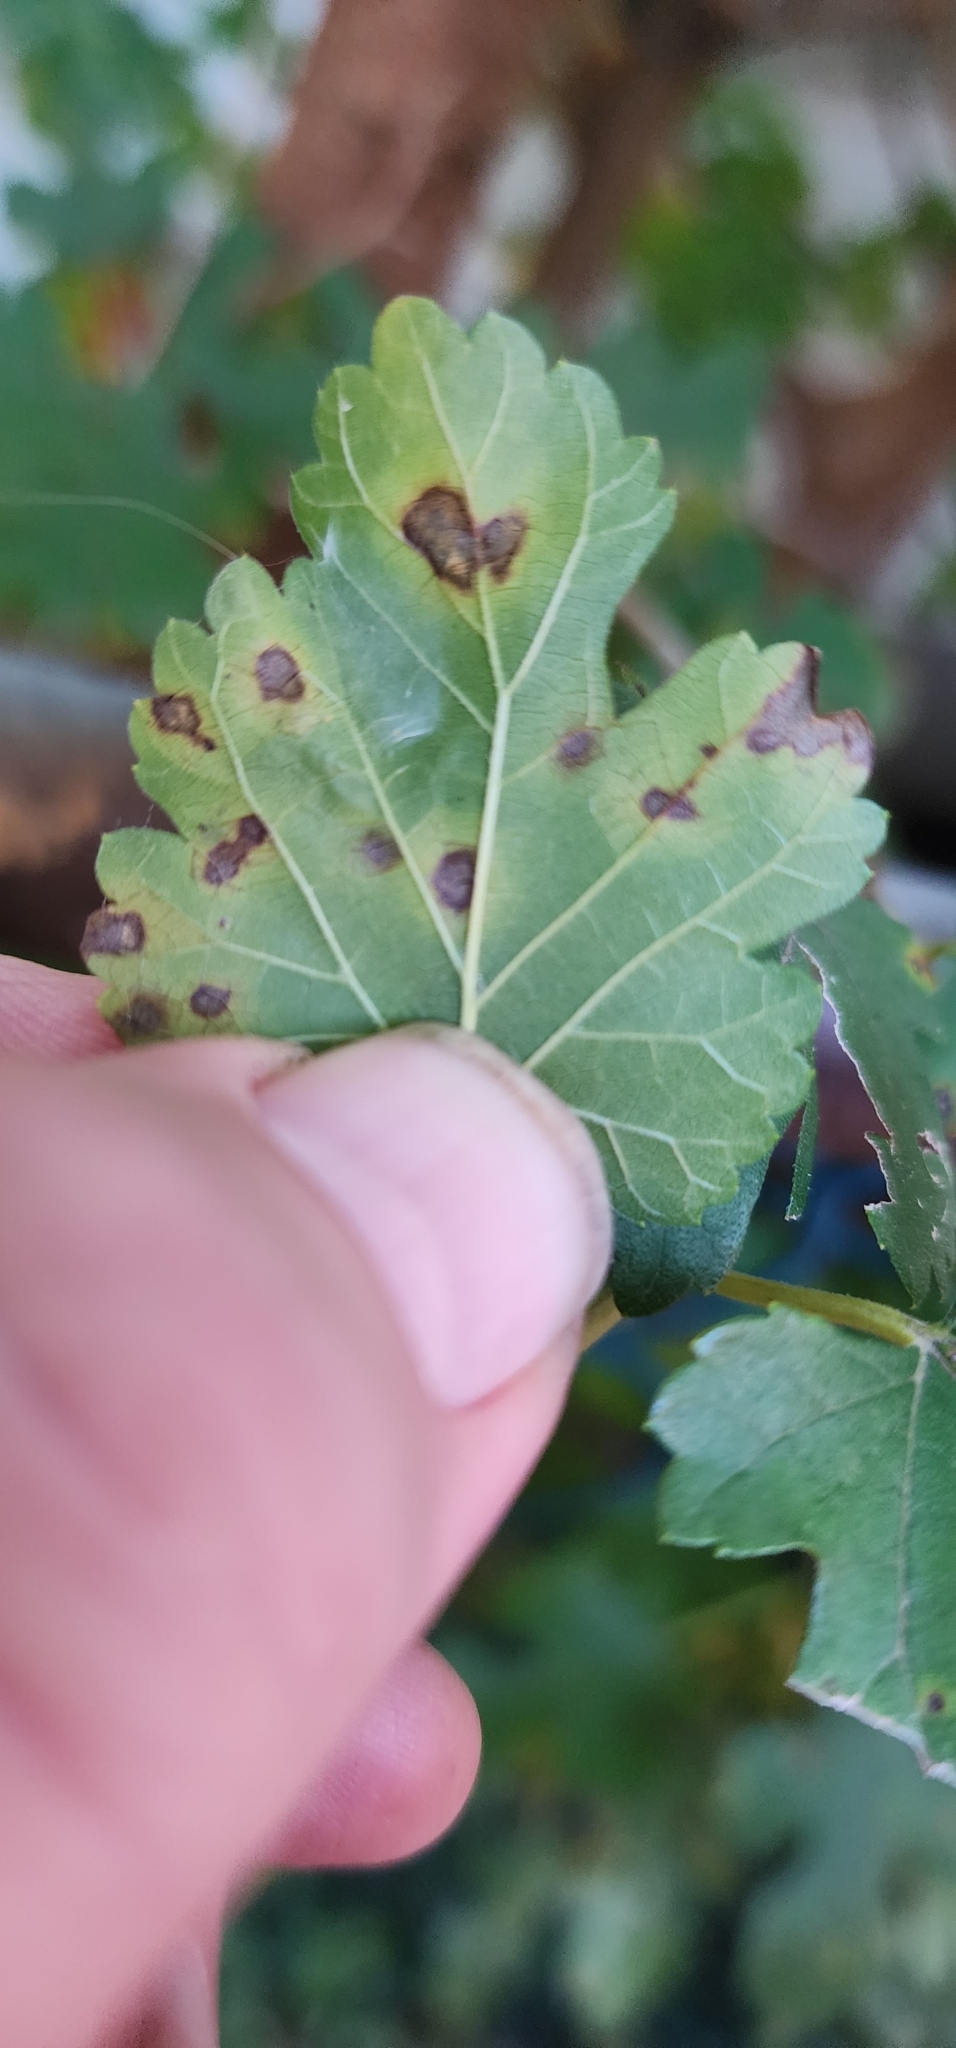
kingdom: Fungi
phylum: Ascomycota
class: Dothideomycetes
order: Mycosphaerellales
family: Mycosphaerellaceae
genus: Cercospora
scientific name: Cercospora moricola
